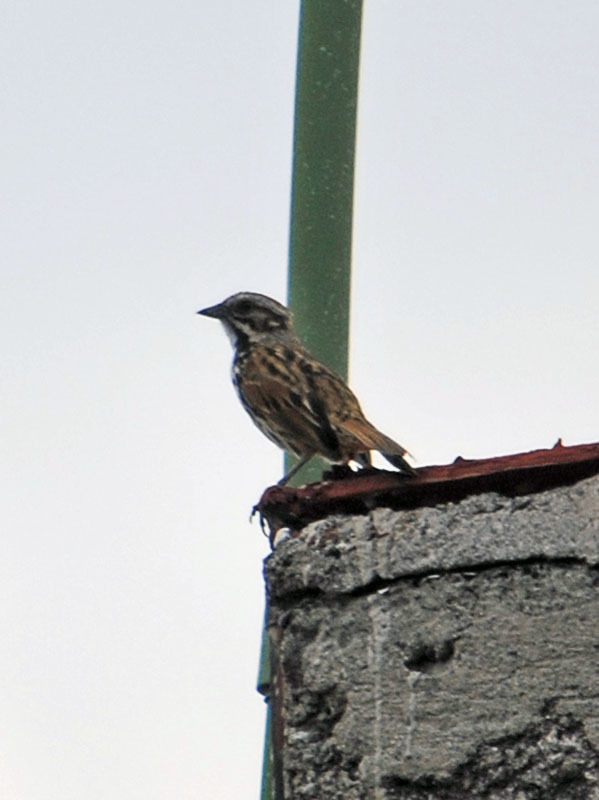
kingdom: Animalia
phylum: Chordata
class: Aves
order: Passeriformes
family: Passerellidae
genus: Melospiza
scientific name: Melospiza melodia
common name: Song sparrow
